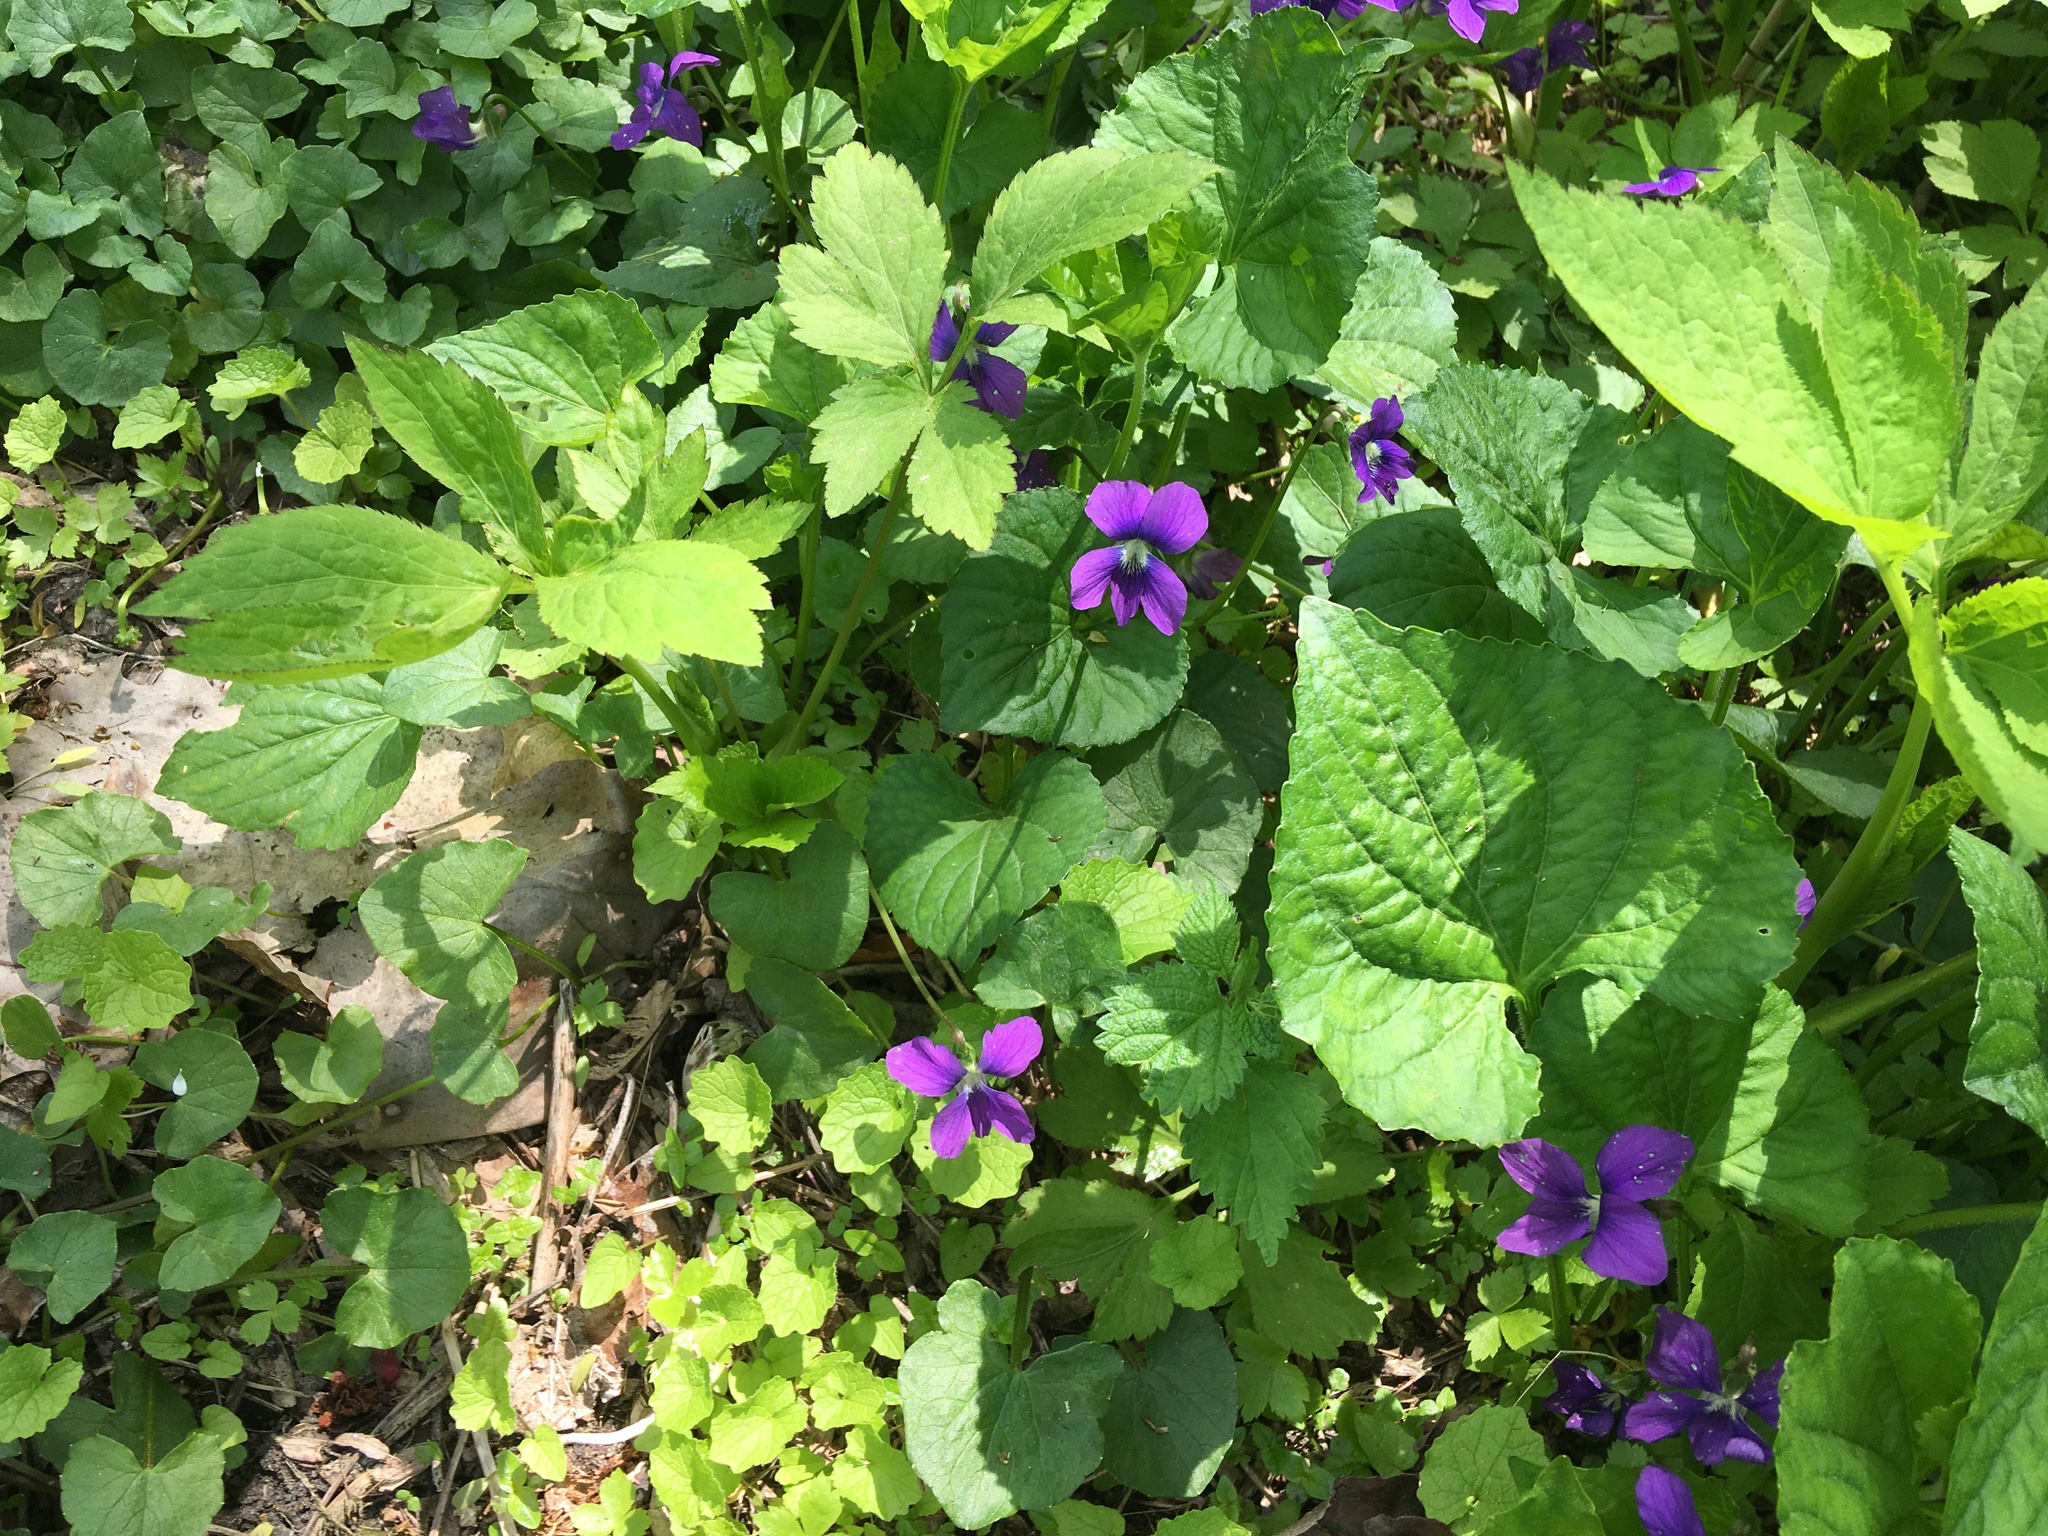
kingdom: Plantae
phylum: Tracheophyta
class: Magnoliopsida
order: Malpighiales
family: Violaceae
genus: Viola
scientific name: Viola sororia
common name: Dooryard violet
